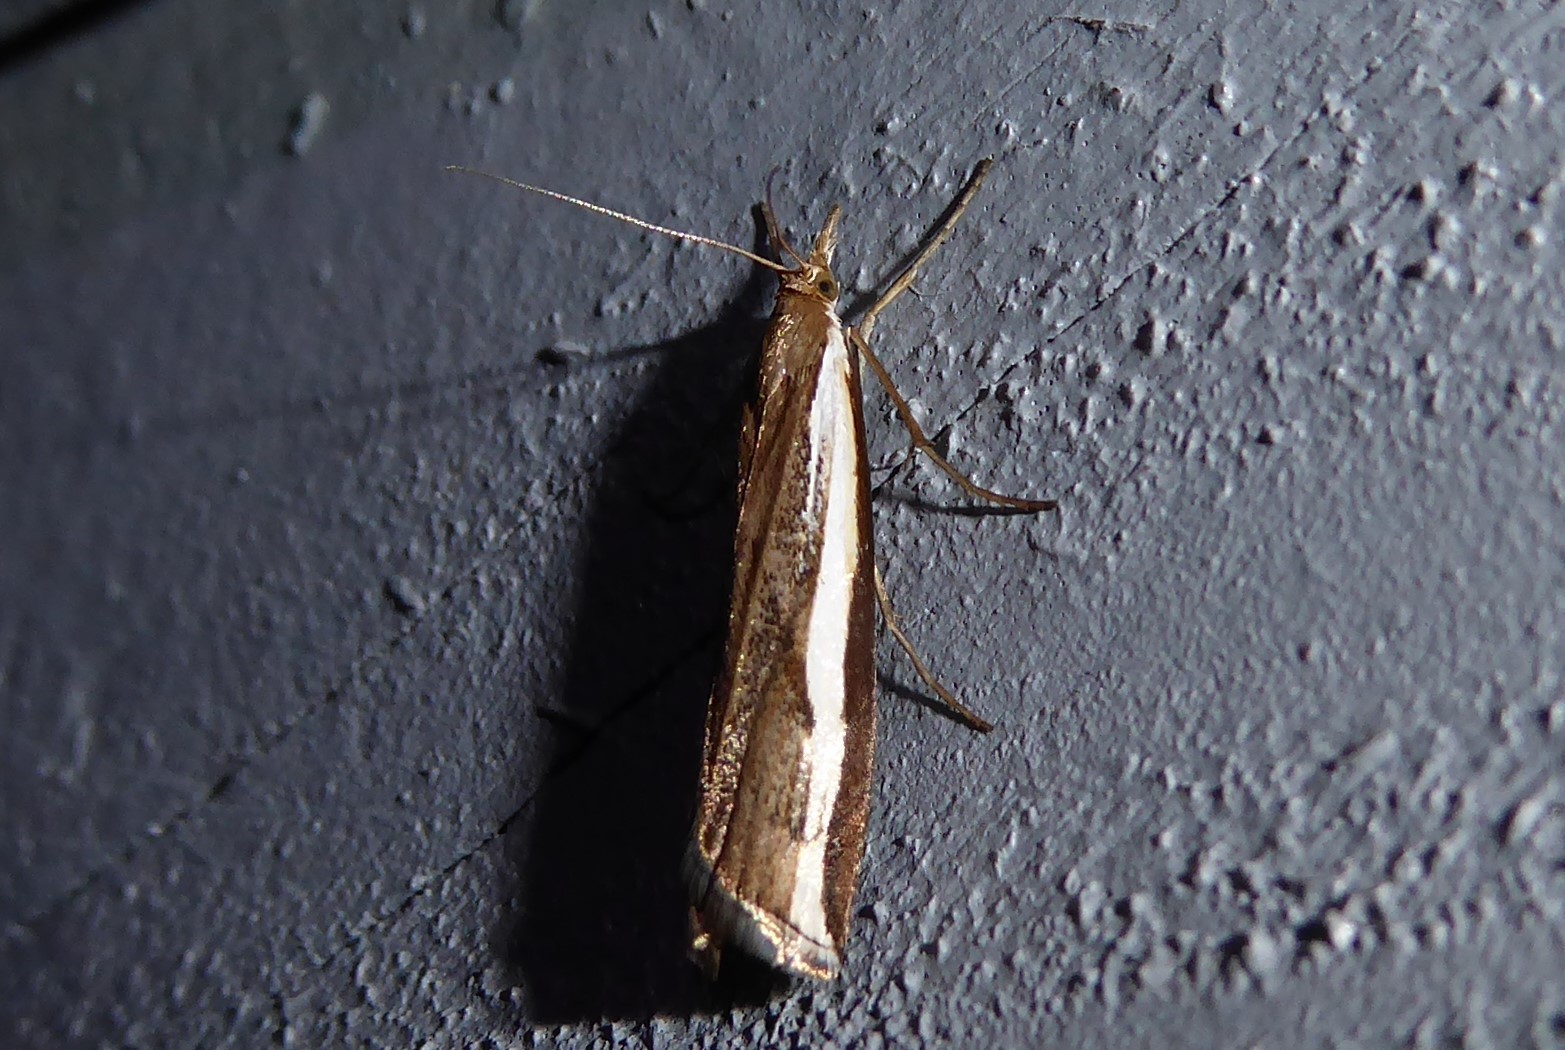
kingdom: Animalia
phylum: Arthropoda
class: Insecta
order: Lepidoptera
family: Crambidae
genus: Orocrambus
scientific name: Orocrambus flexuosellus
